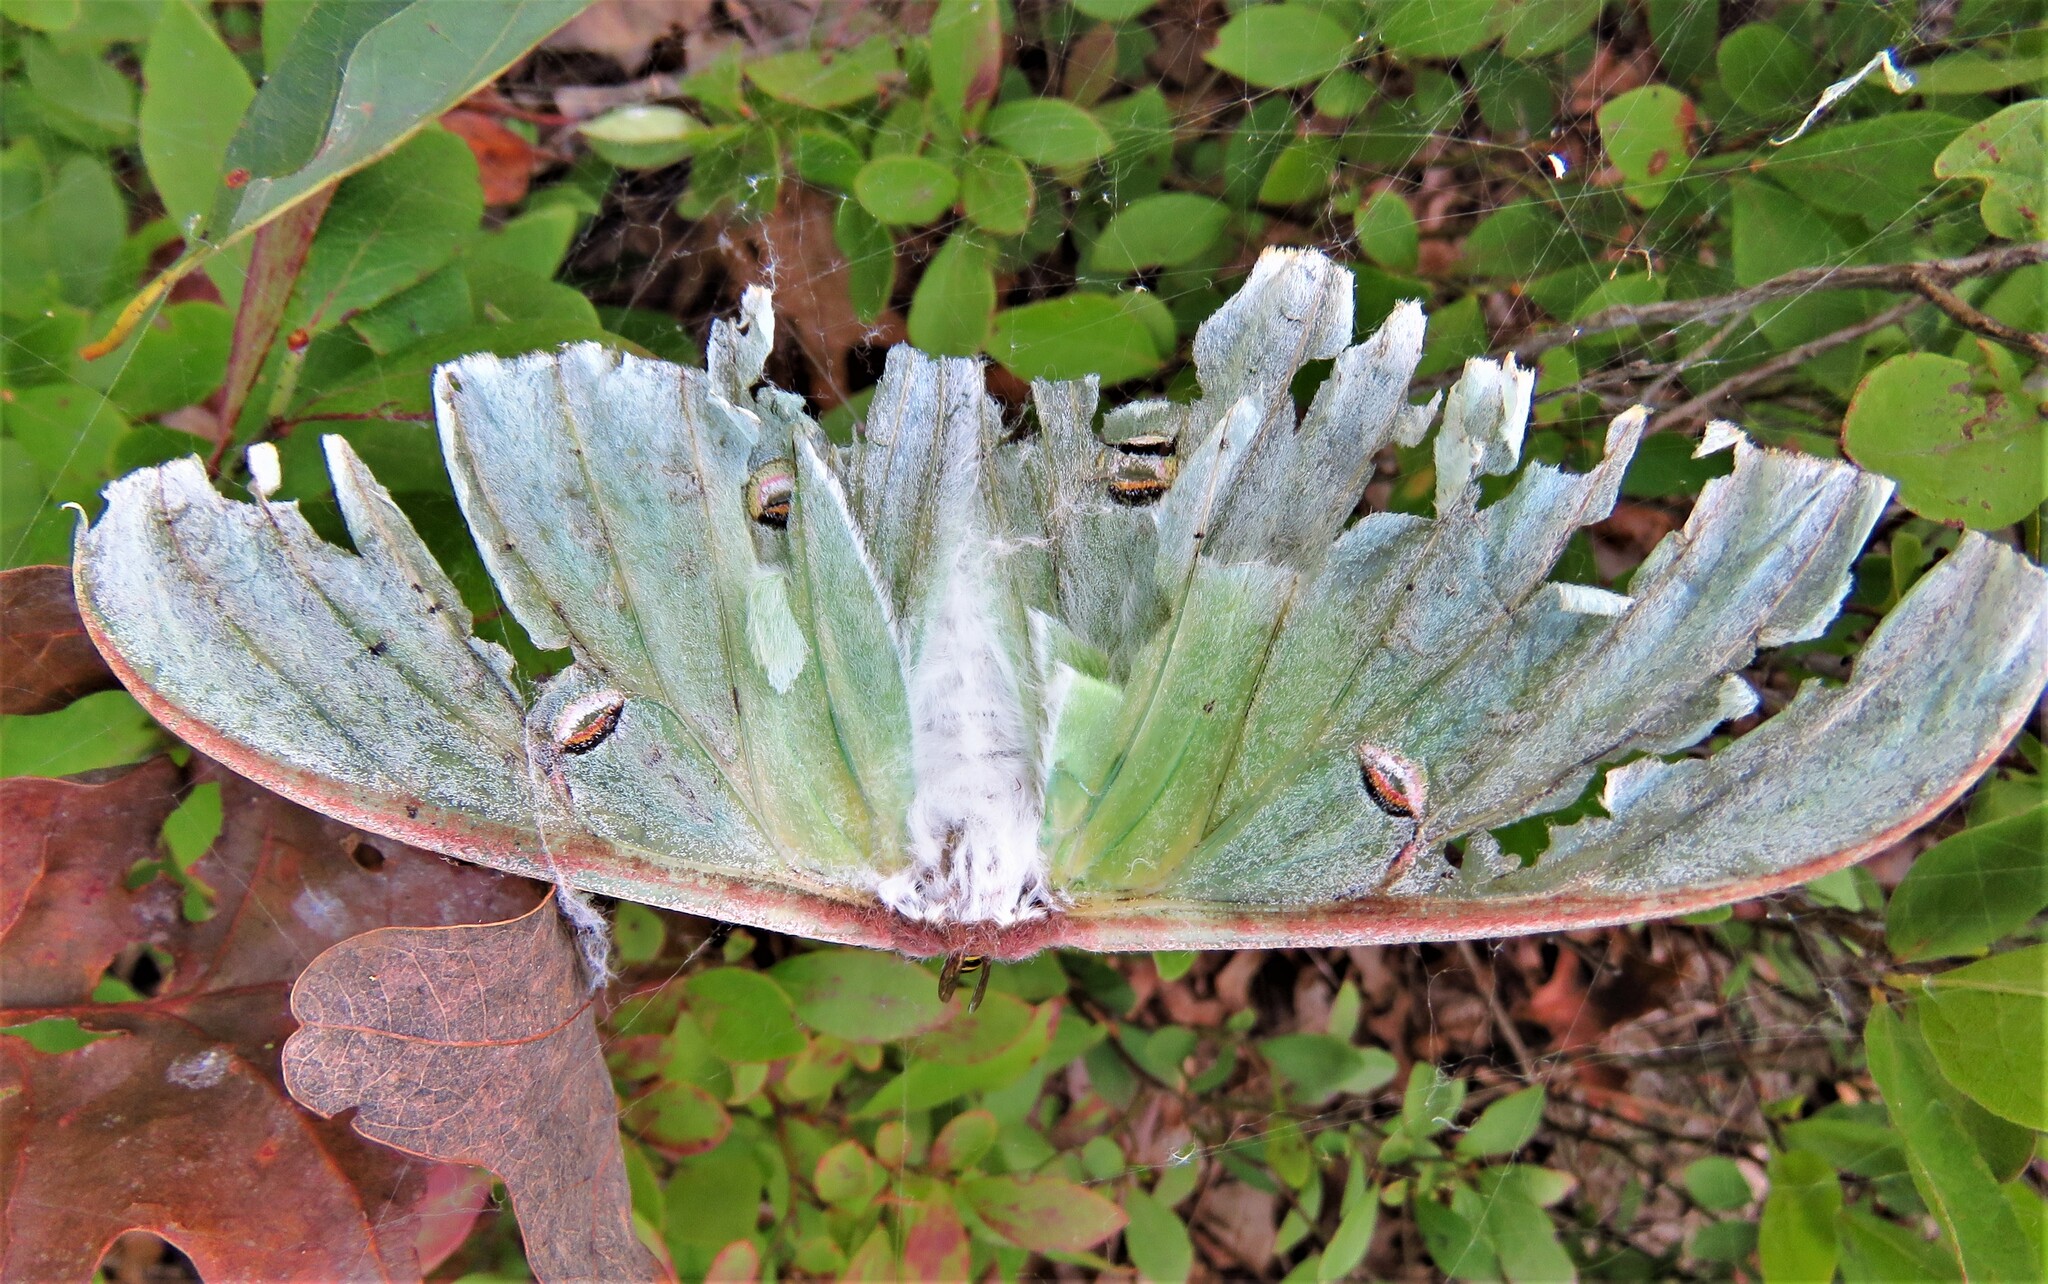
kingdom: Animalia
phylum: Arthropoda
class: Insecta
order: Lepidoptera
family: Saturniidae
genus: Actias
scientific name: Actias luna
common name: Luna moth
